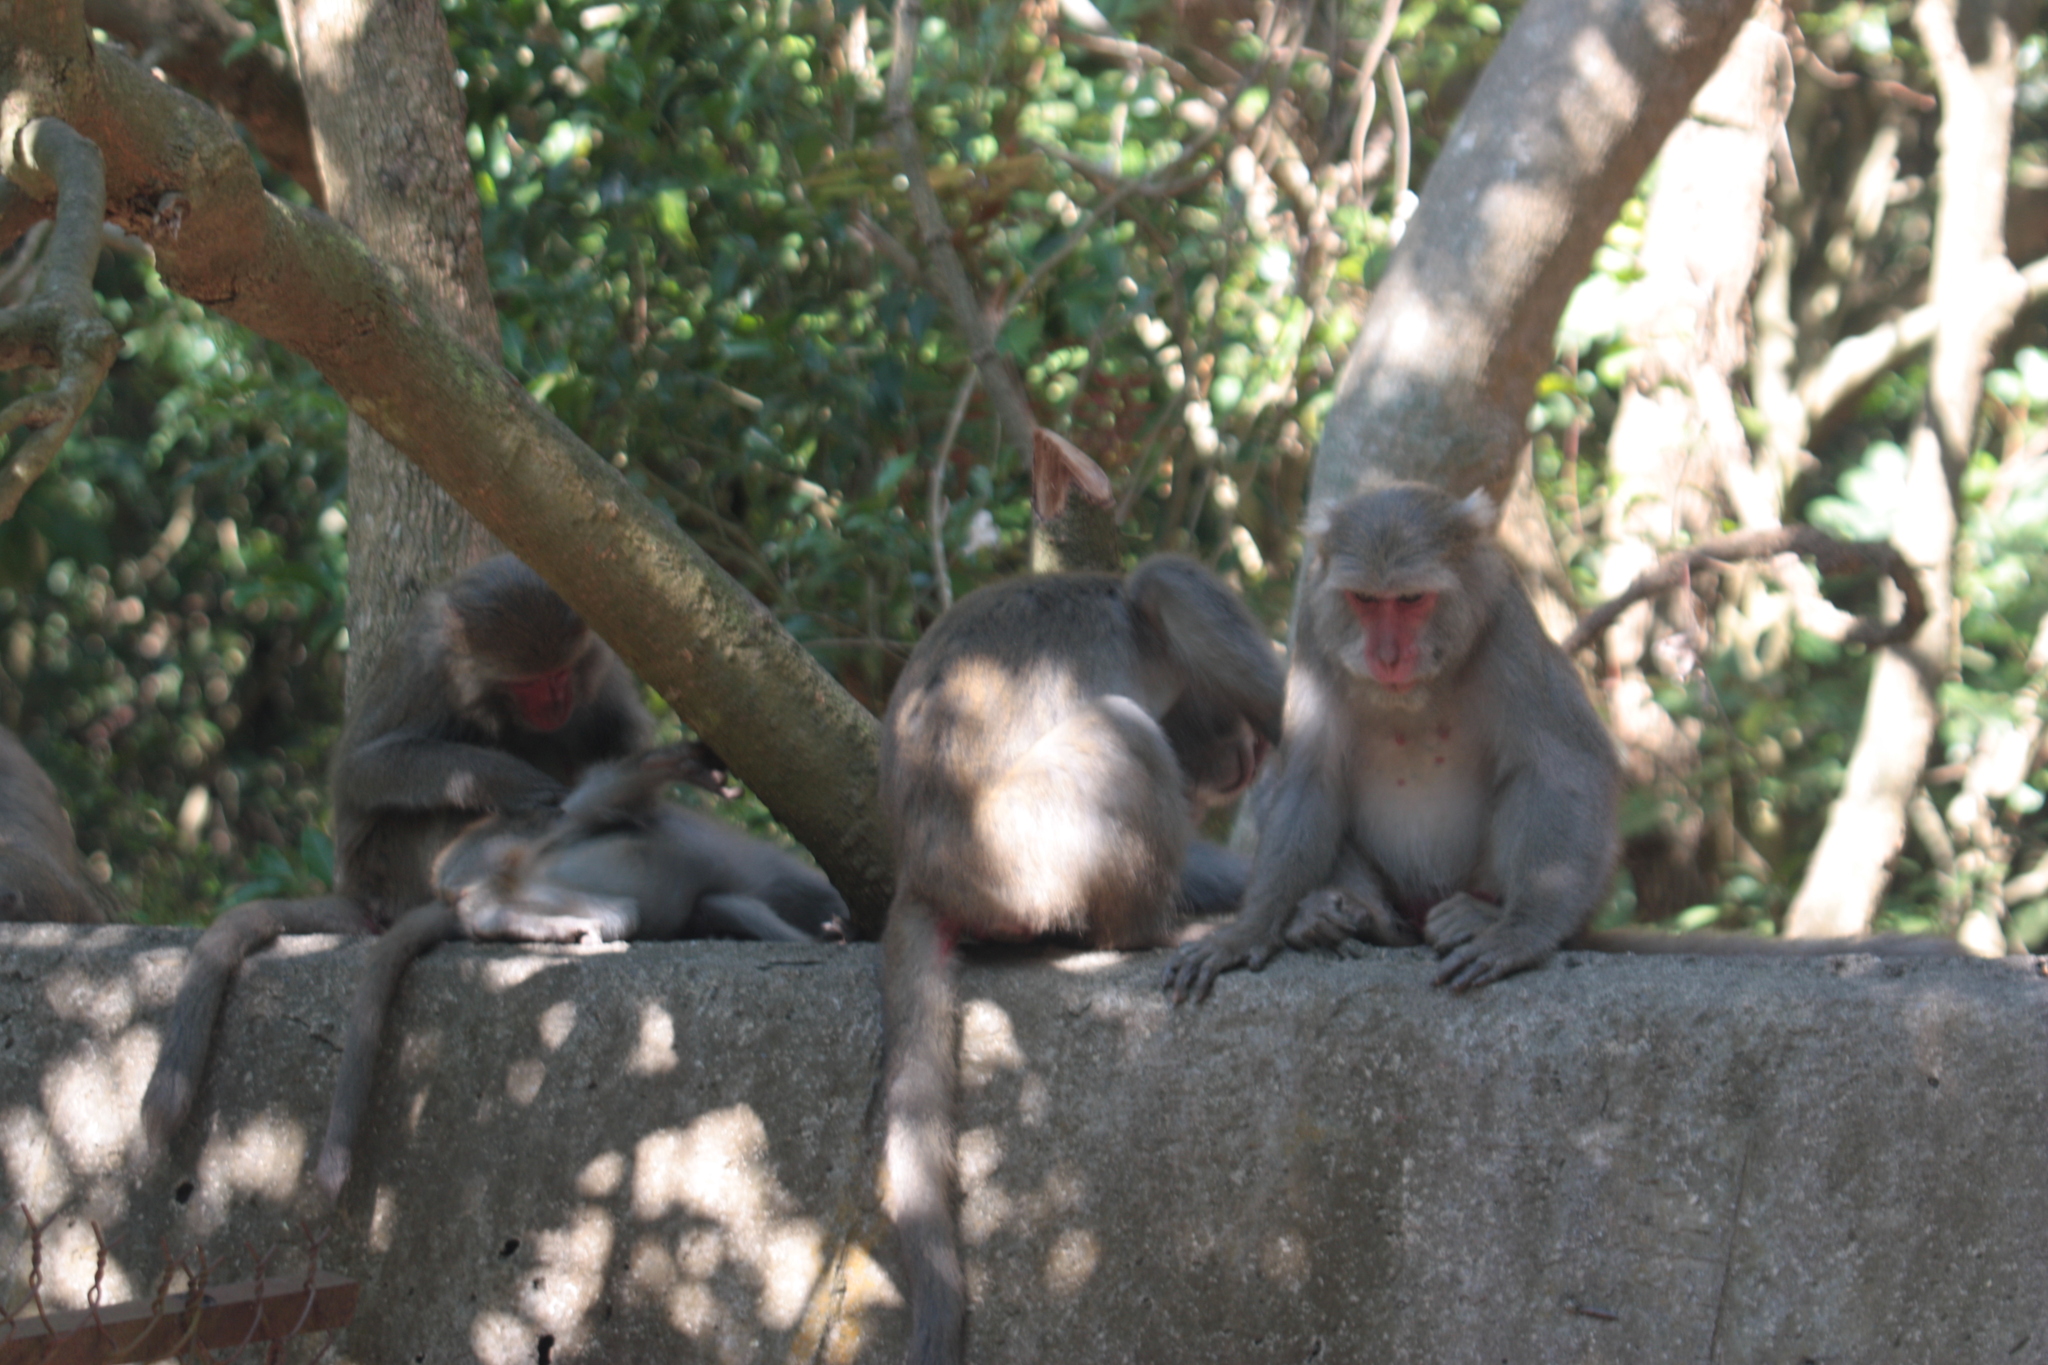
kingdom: Animalia
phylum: Chordata
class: Mammalia
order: Primates
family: Cercopithecidae
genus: Macaca
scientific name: Macaca cyclopis
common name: Formosan rock macaque
